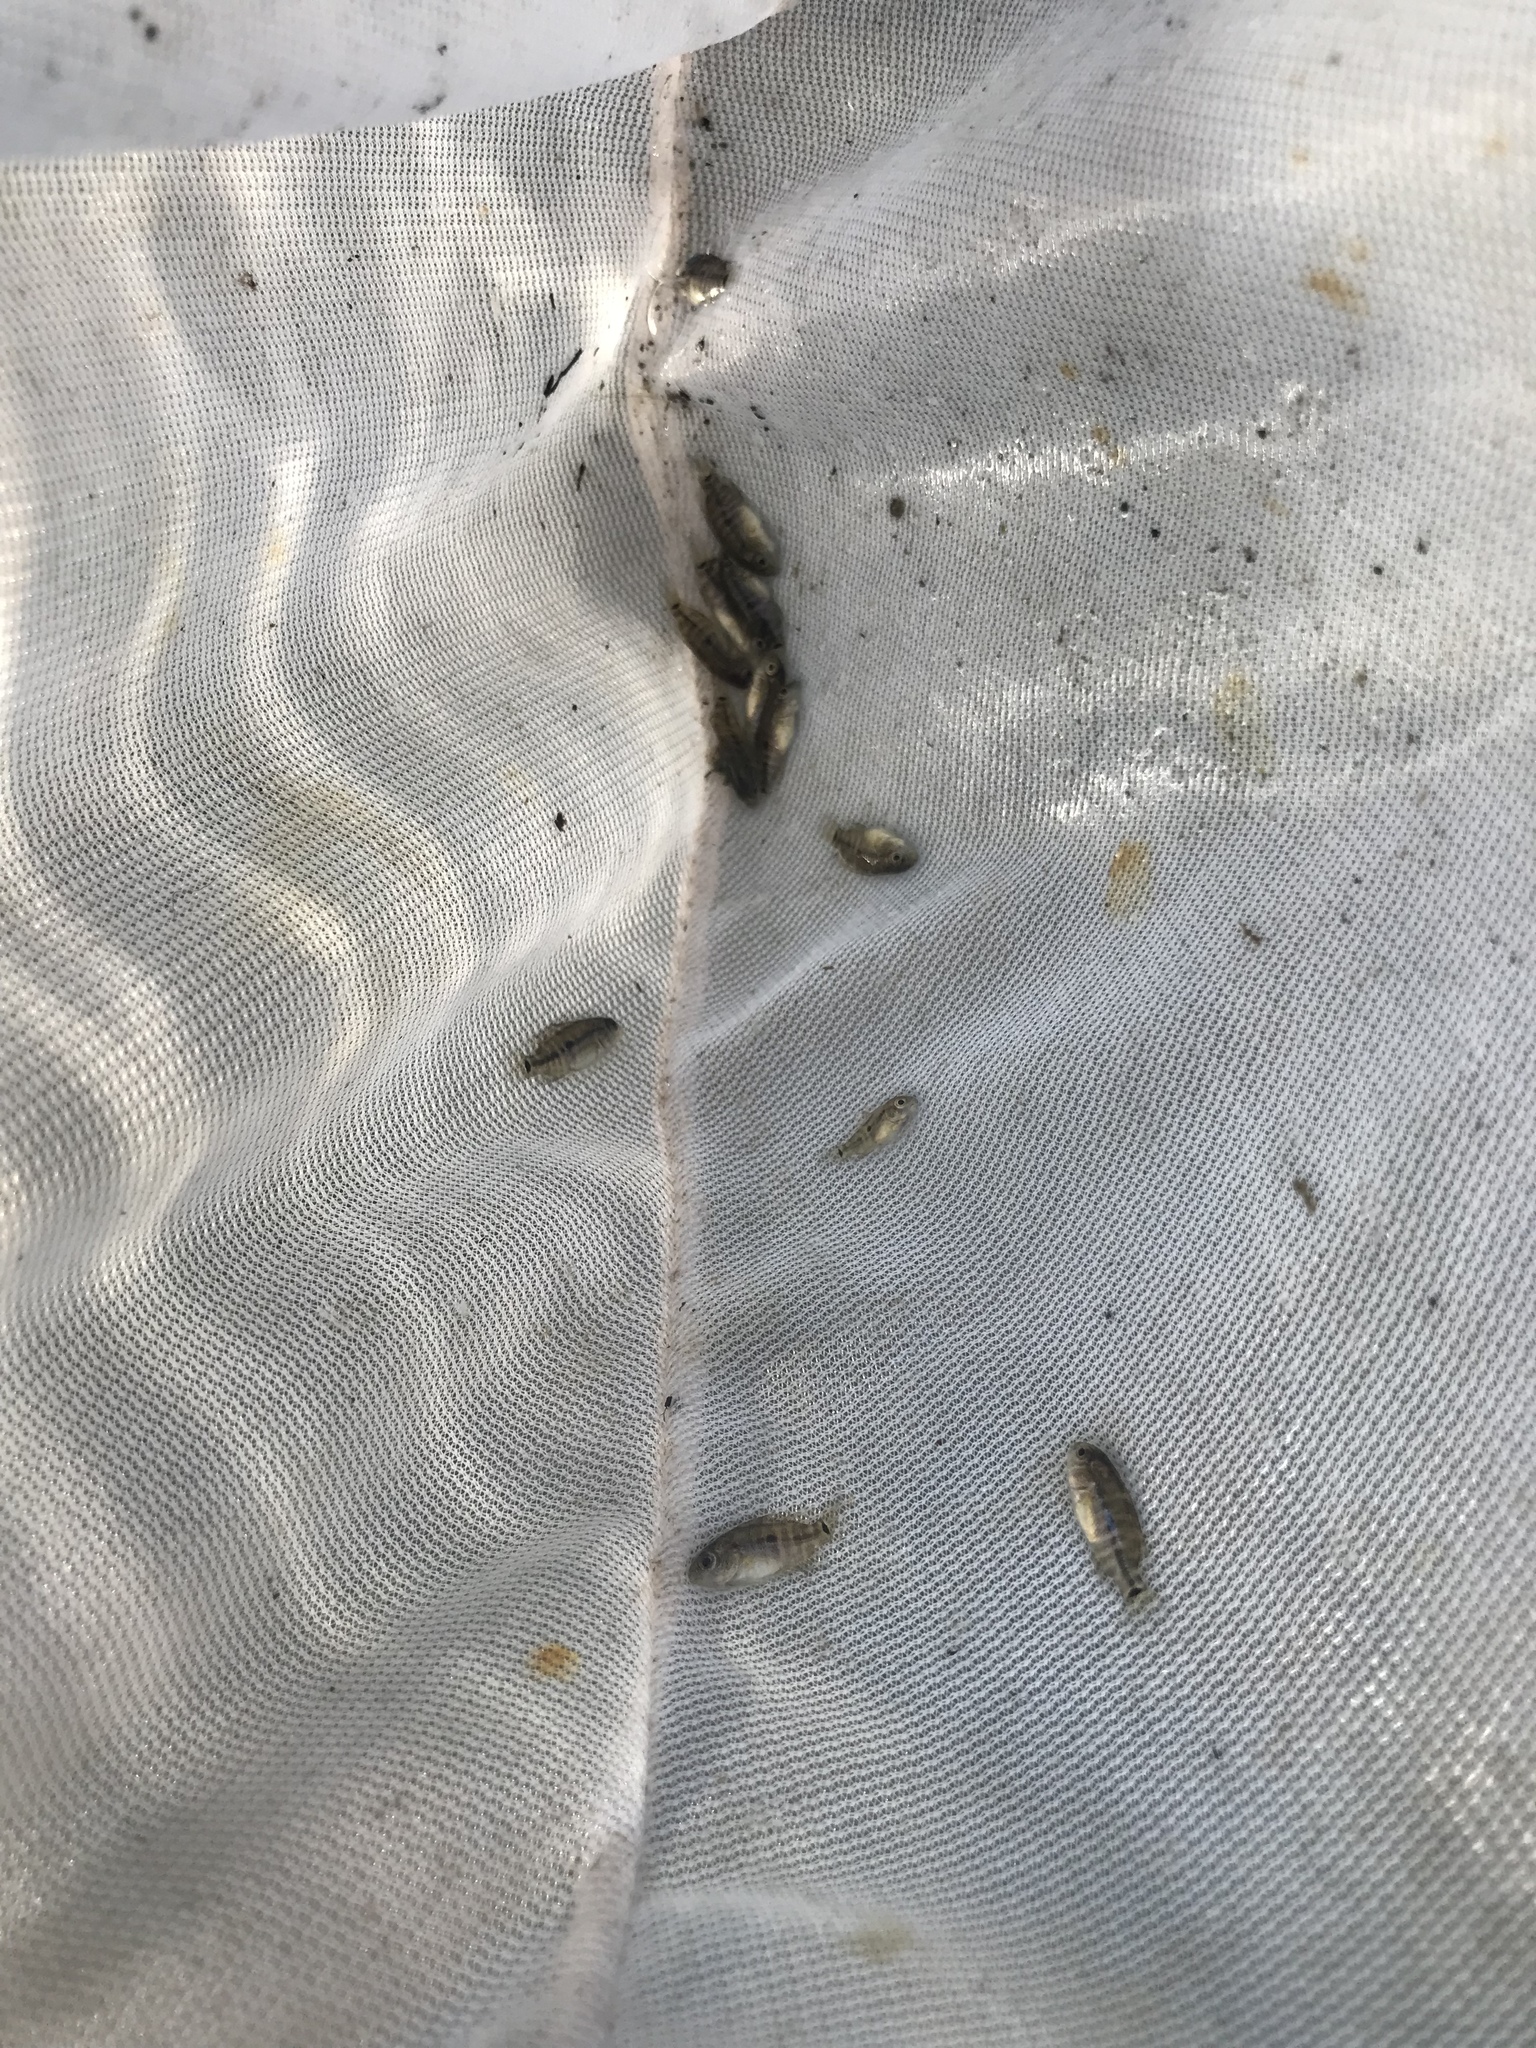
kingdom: Animalia
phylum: Chordata
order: Perciformes
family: Cichlidae
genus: Herichthys
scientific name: Herichthys cyanoguttatus
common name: Rio grande cichlid
